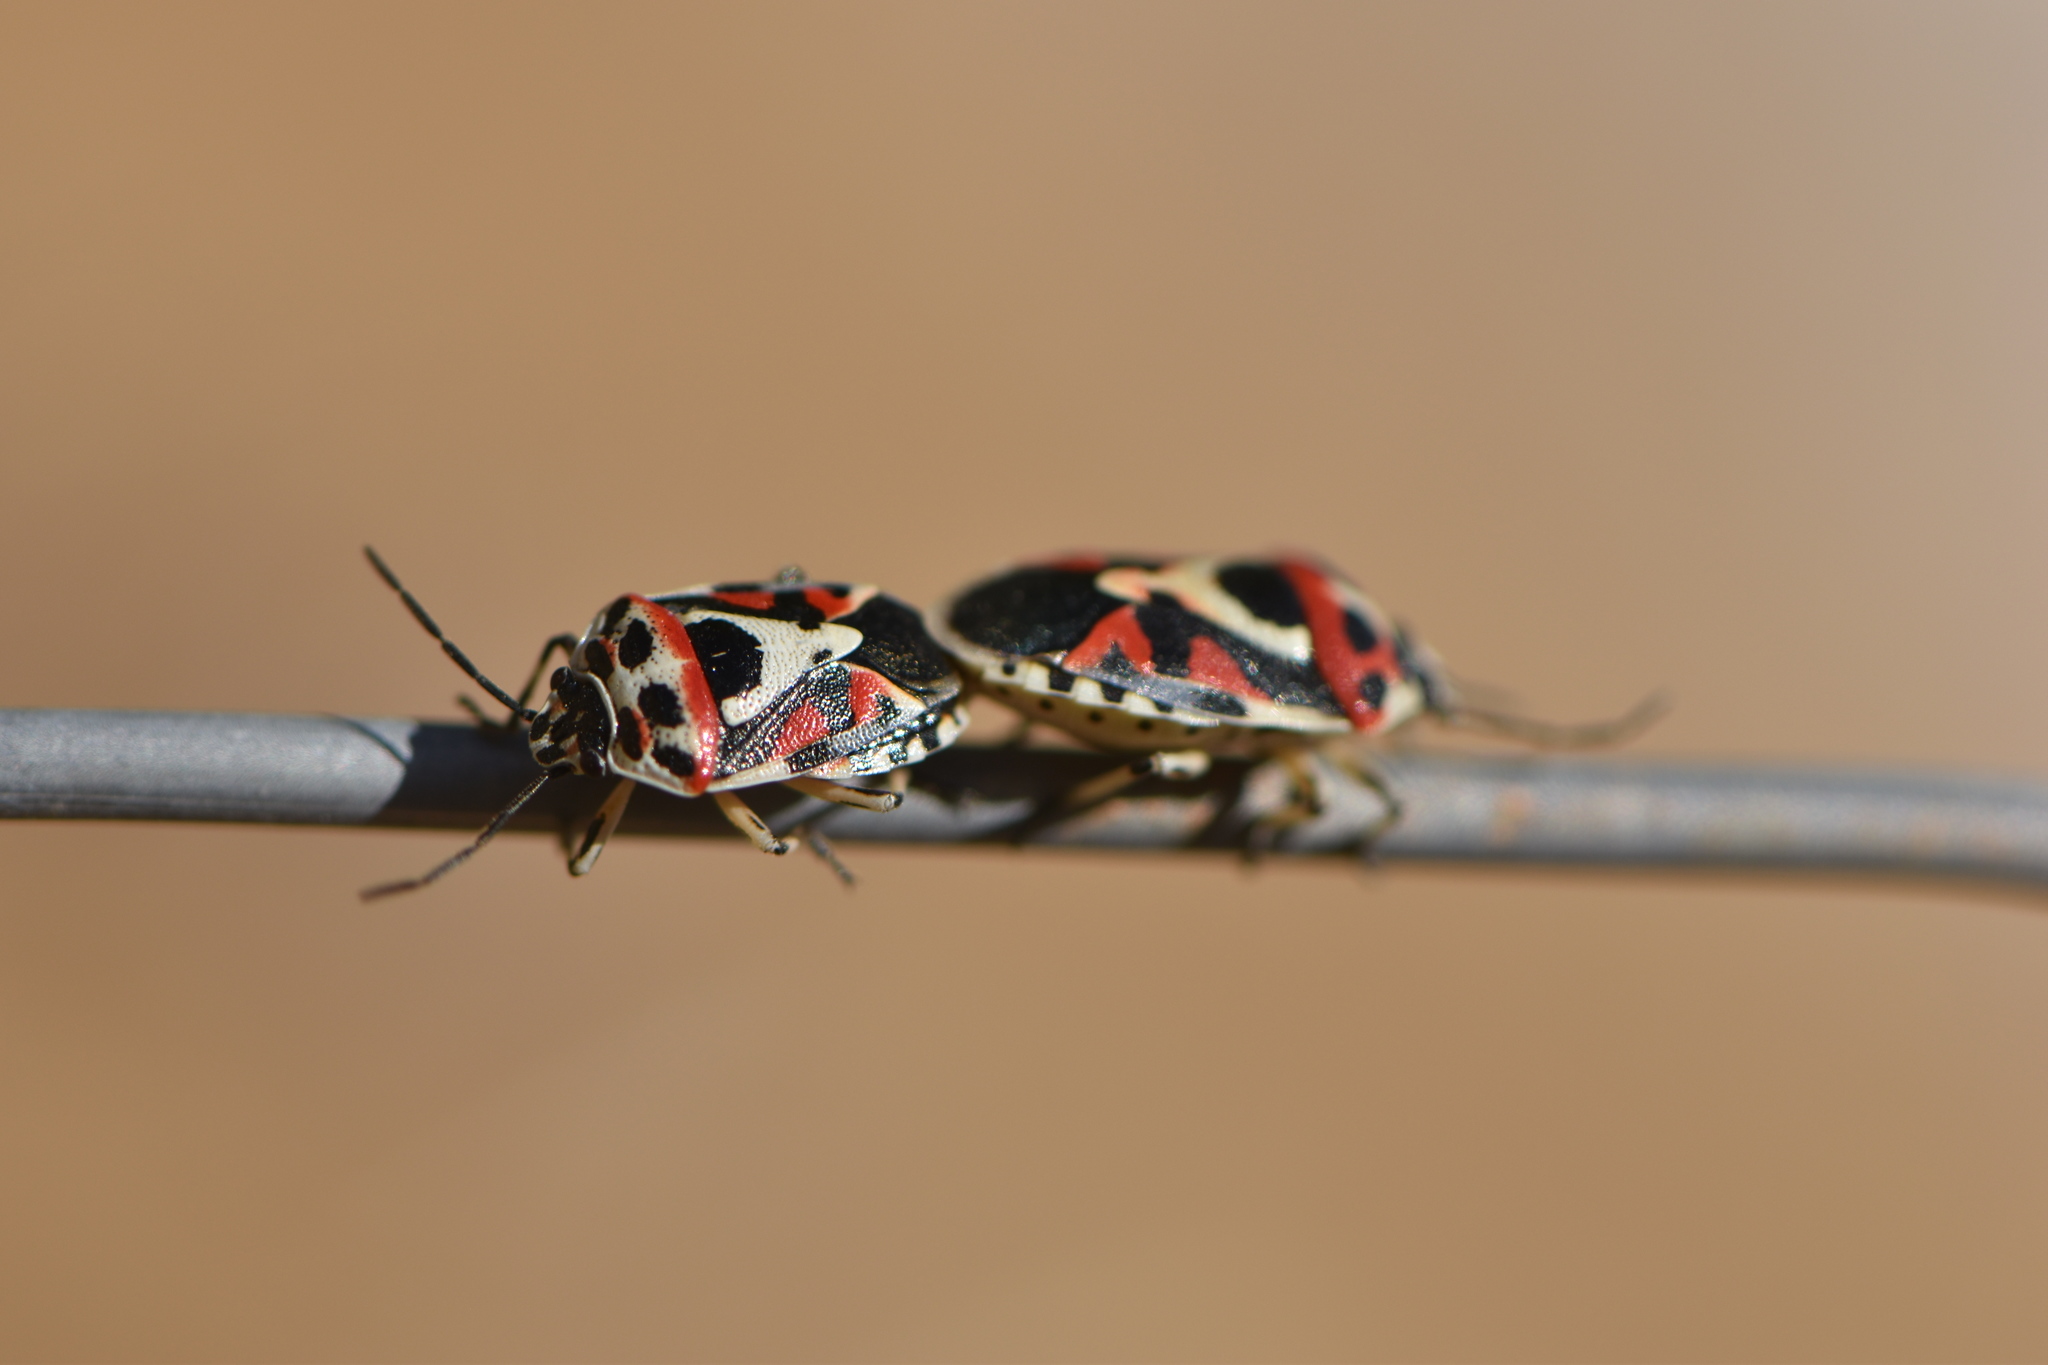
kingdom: Animalia
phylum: Arthropoda
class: Insecta
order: Hemiptera
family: Pentatomidae
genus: Eurydema
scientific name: Eurydema ornata
